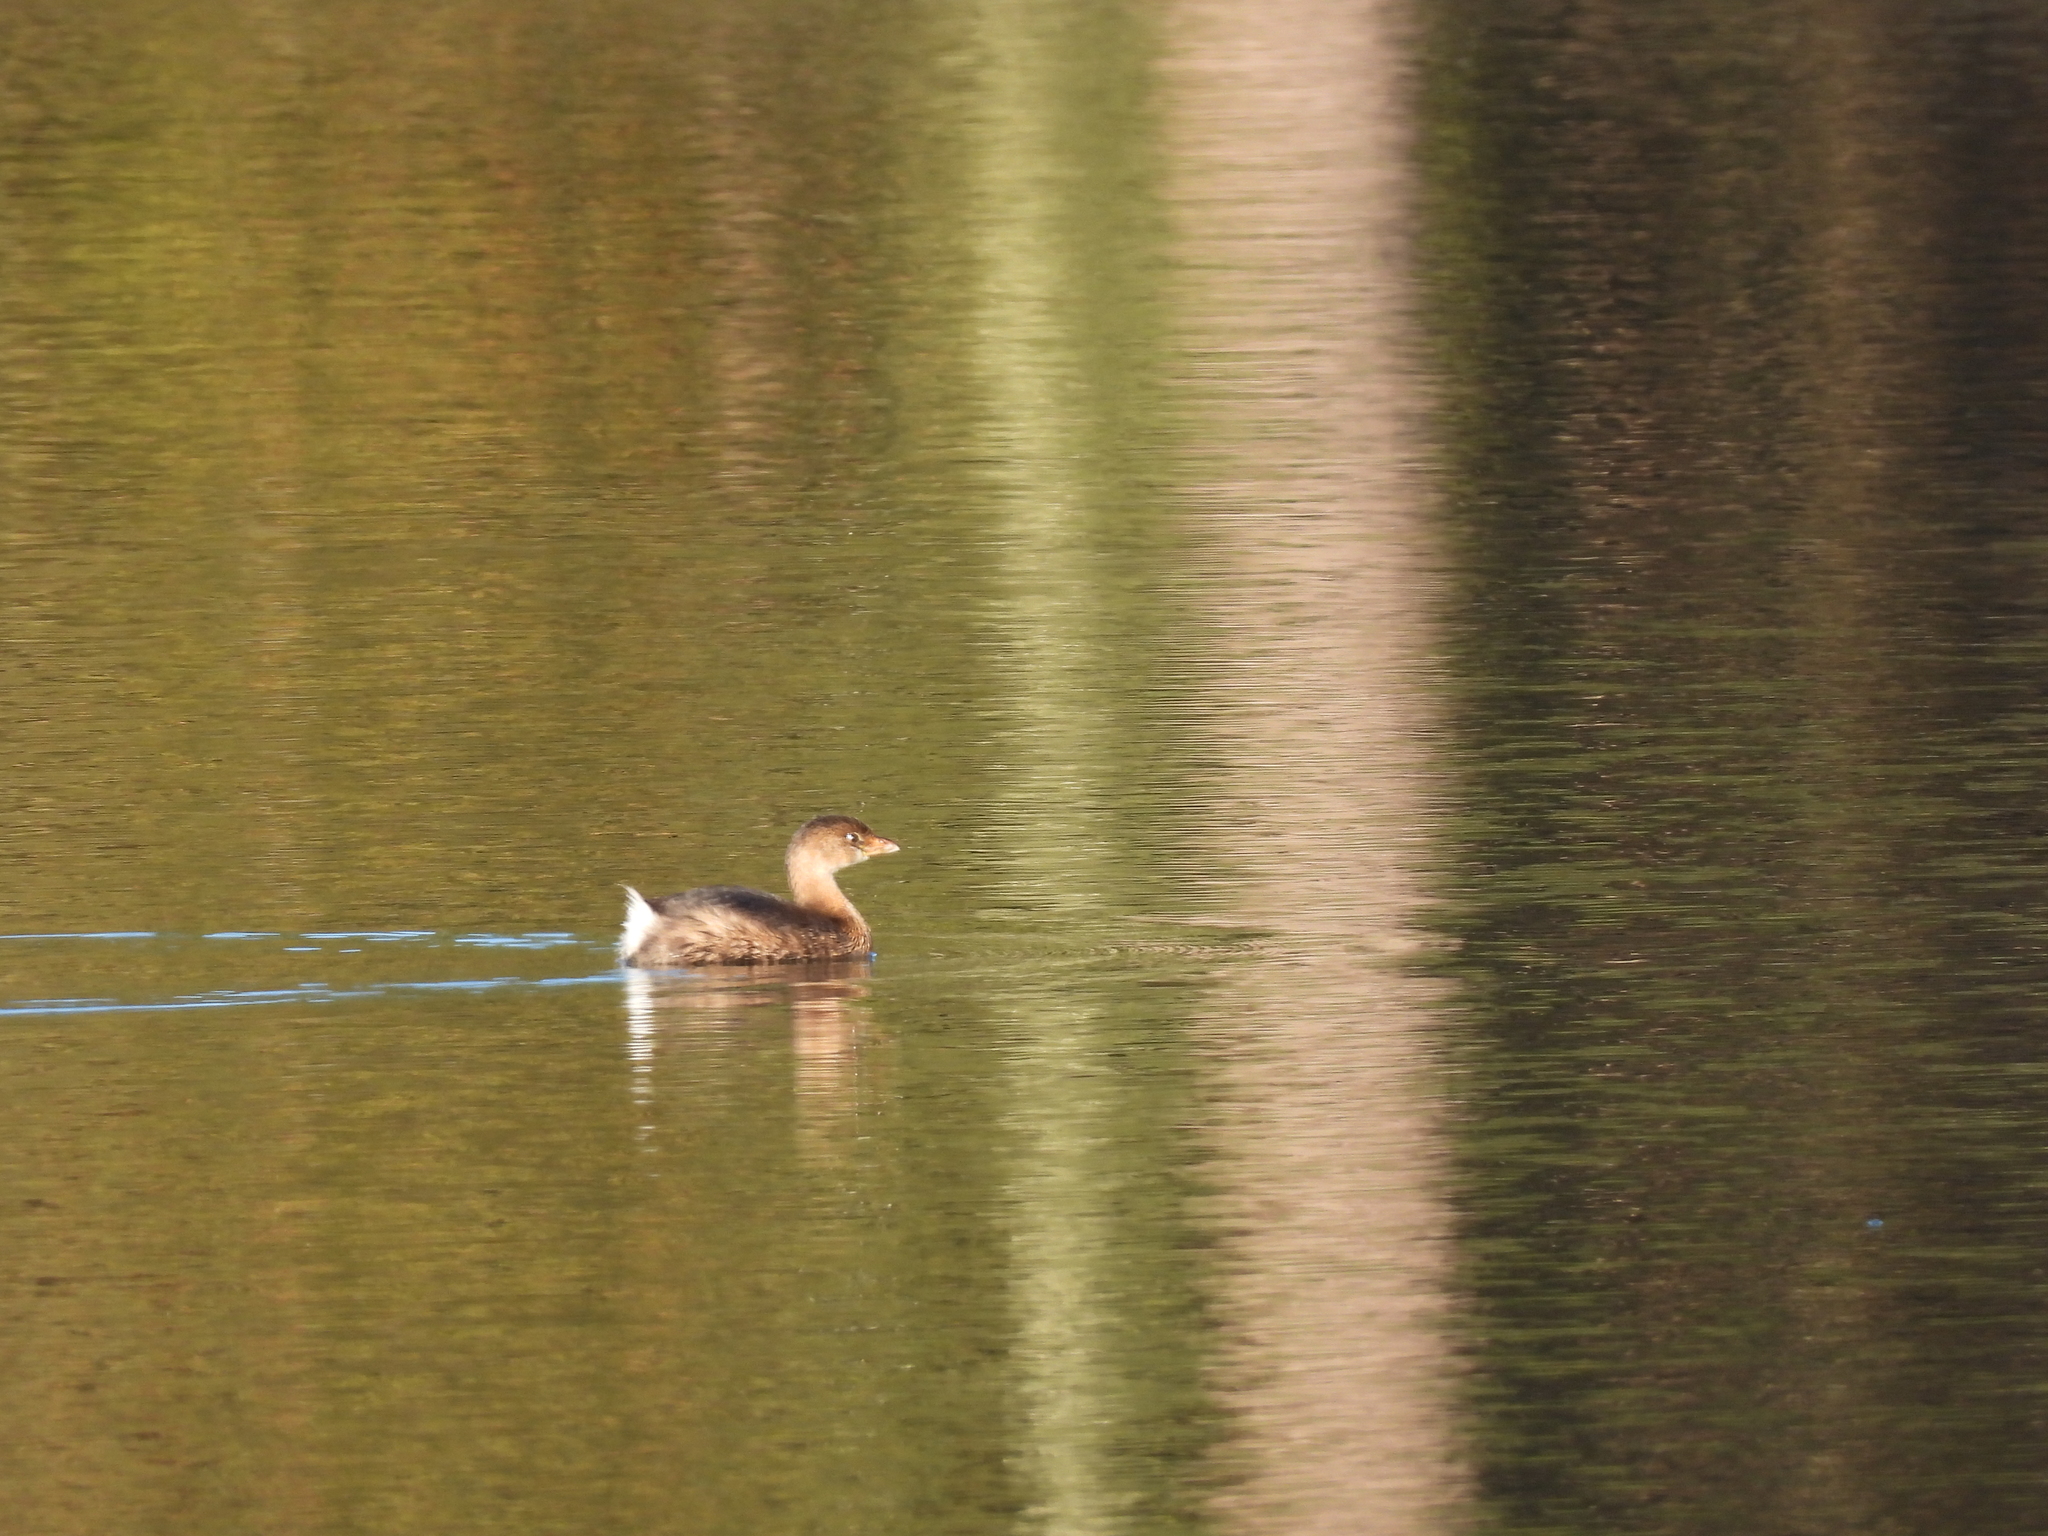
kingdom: Animalia
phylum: Chordata
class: Aves
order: Podicipediformes
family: Podicipedidae
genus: Podilymbus
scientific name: Podilymbus podiceps
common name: Pied-billed grebe
